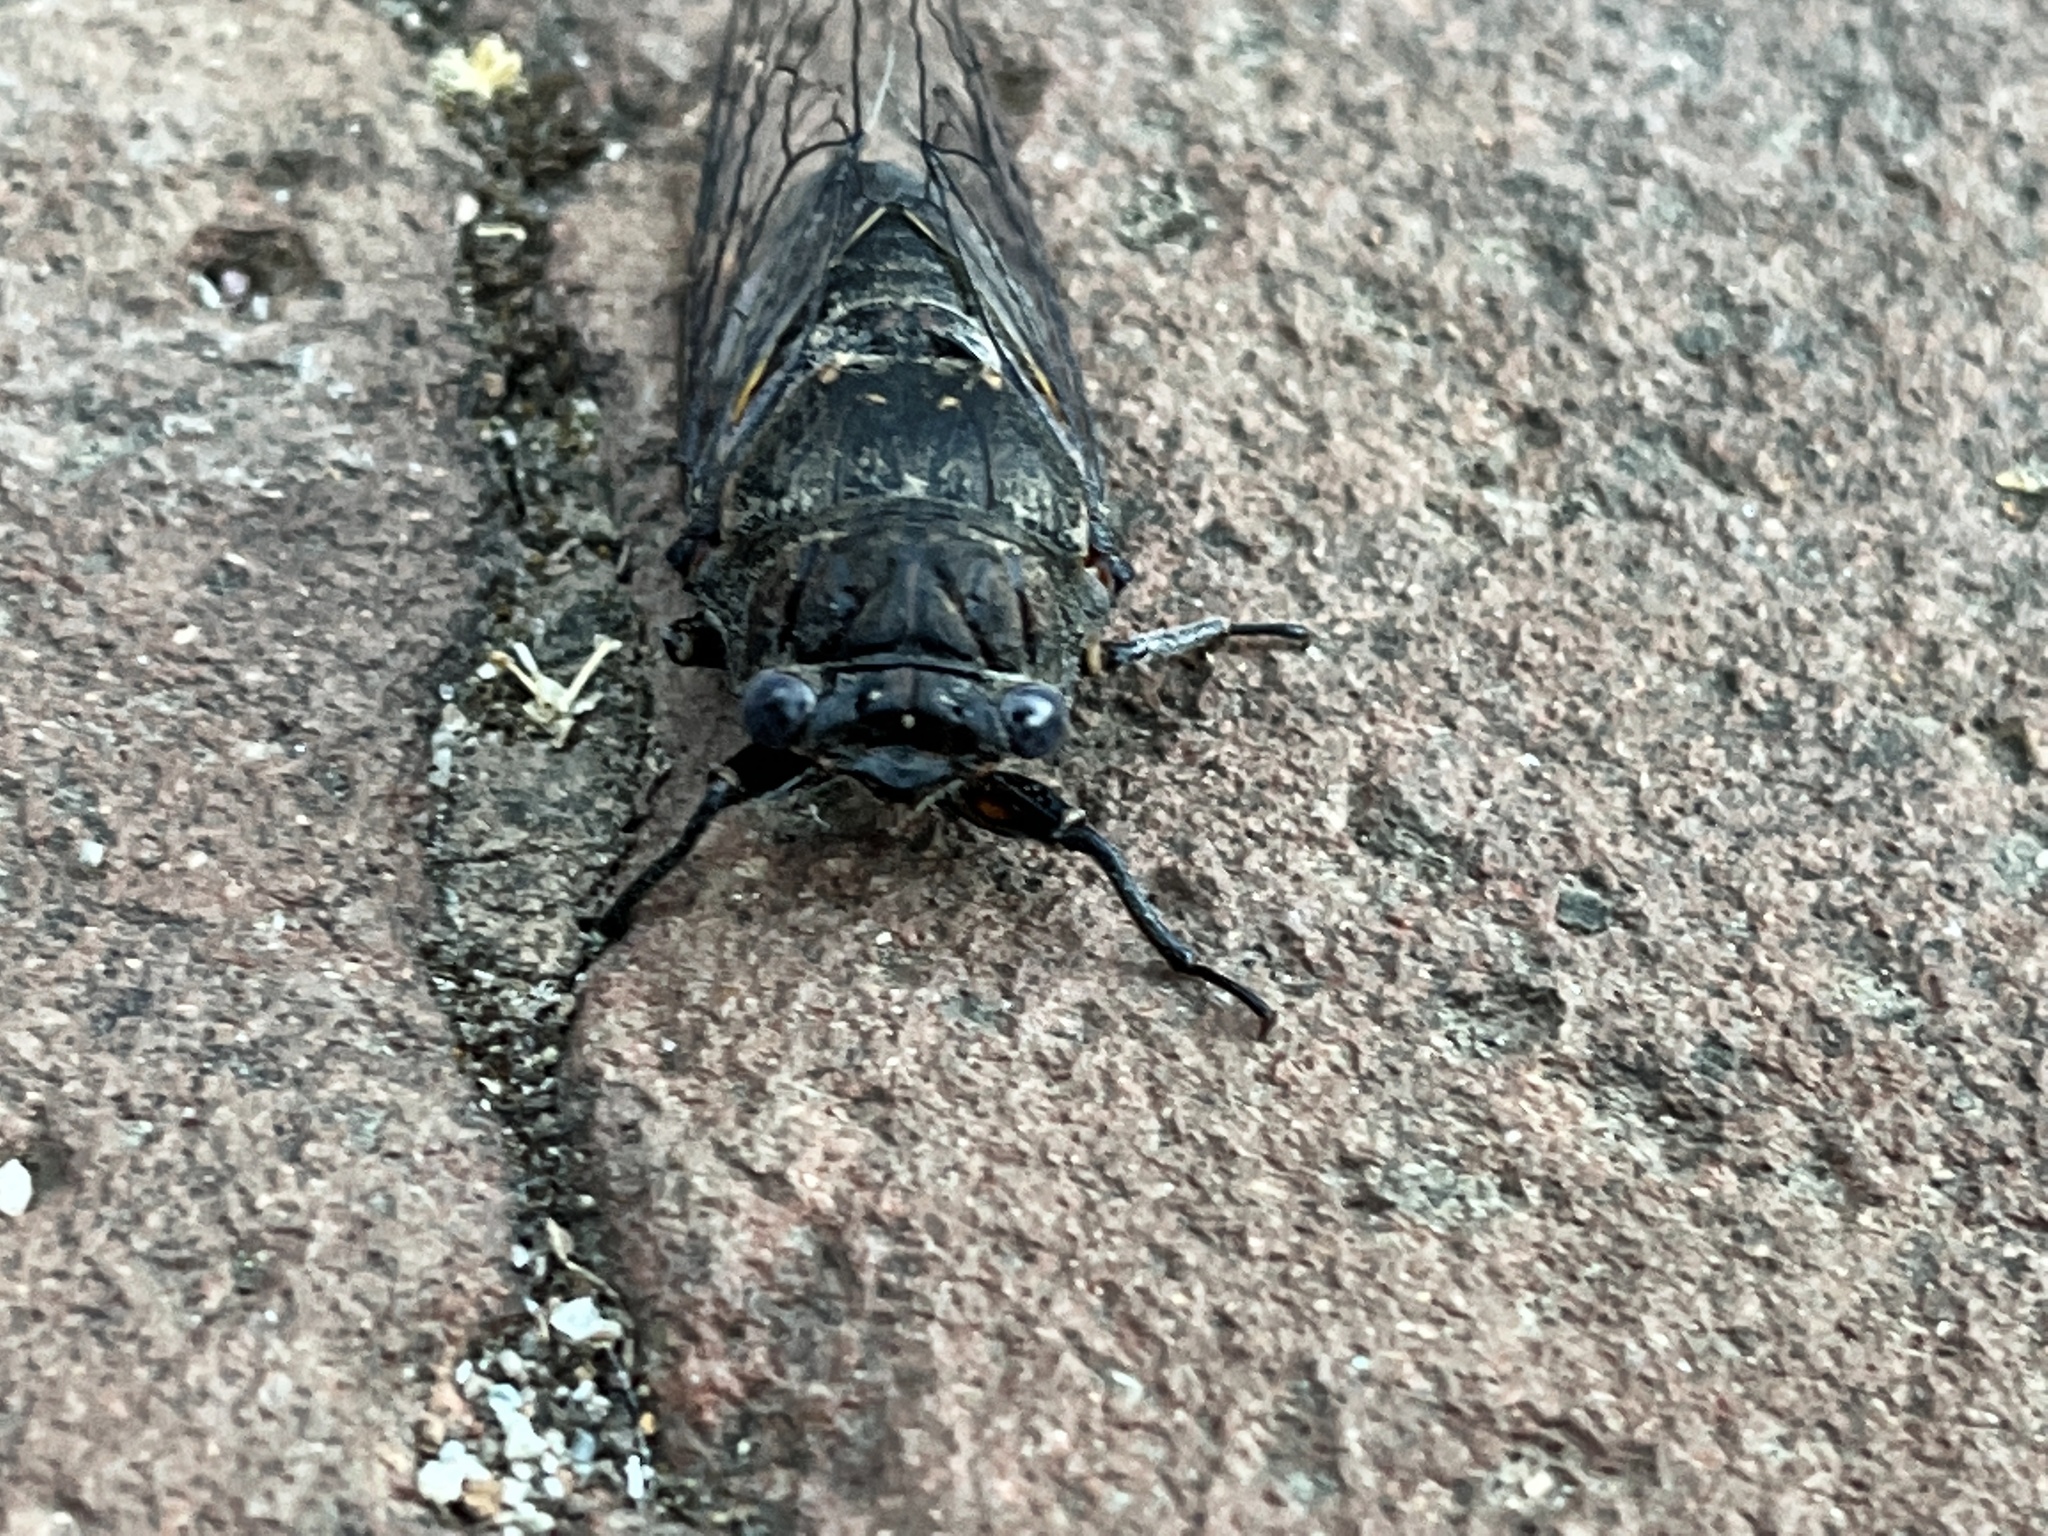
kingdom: Animalia
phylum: Arthropoda
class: Insecta
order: Hemiptera
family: Cicadidae
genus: Okanagana
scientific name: Okanagana tristis
